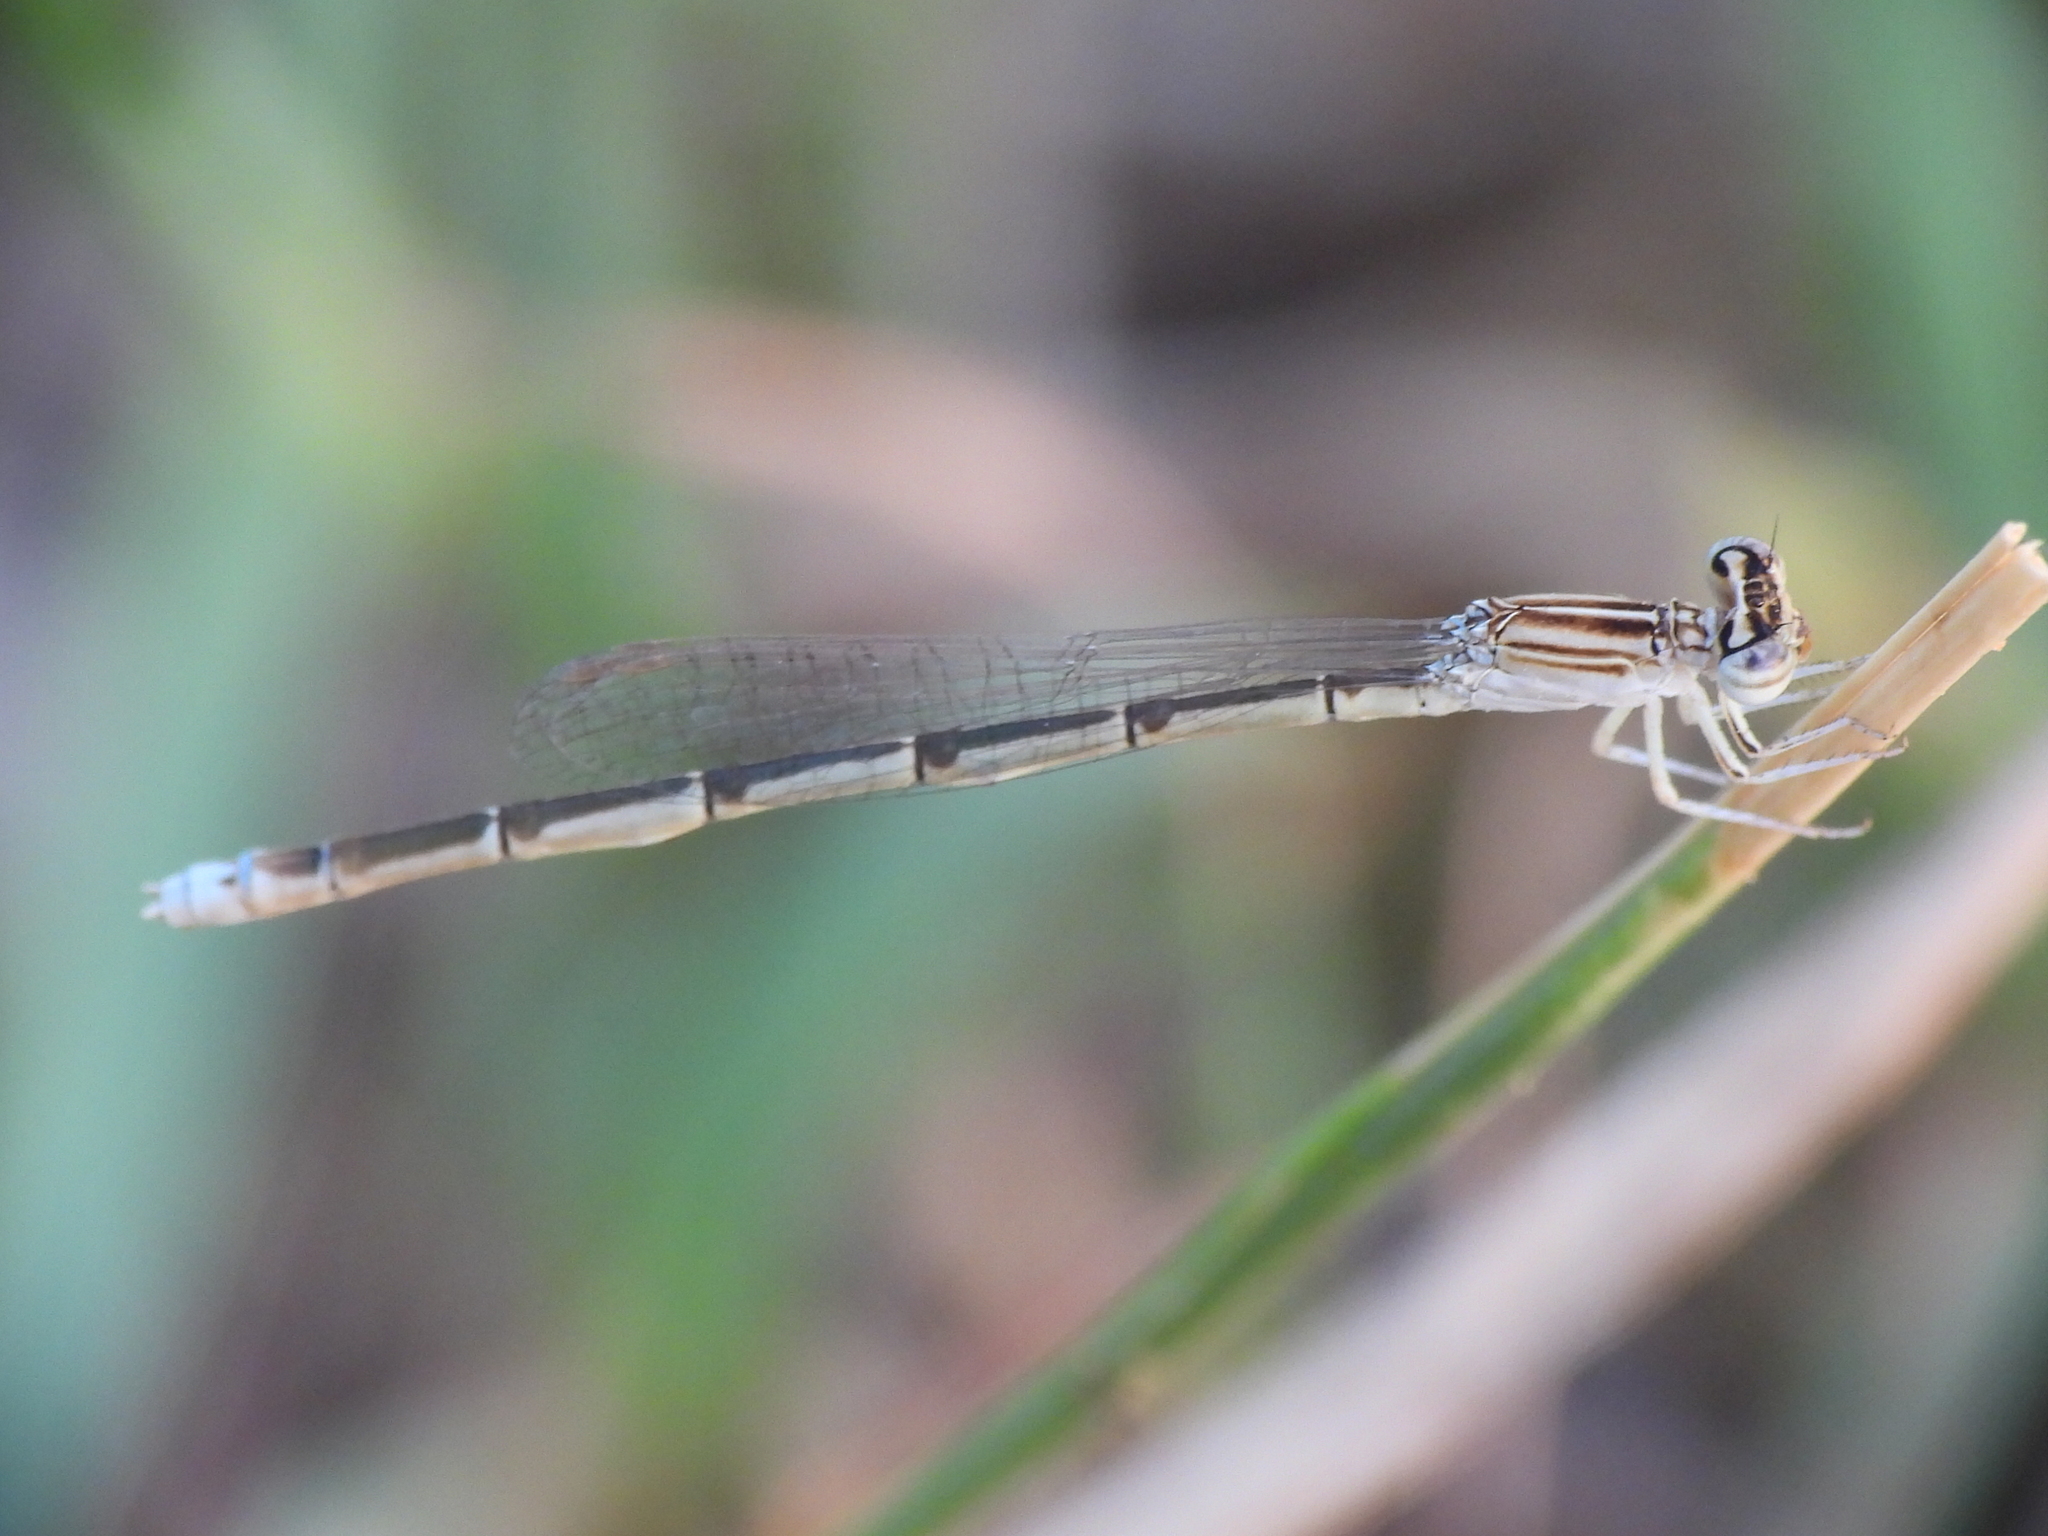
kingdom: Animalia
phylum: Arthropoda
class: Insecta
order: Odonata
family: Coenagrionidae
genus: Enallagma
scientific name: Enallagma basidens
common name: Double-striped bluet
